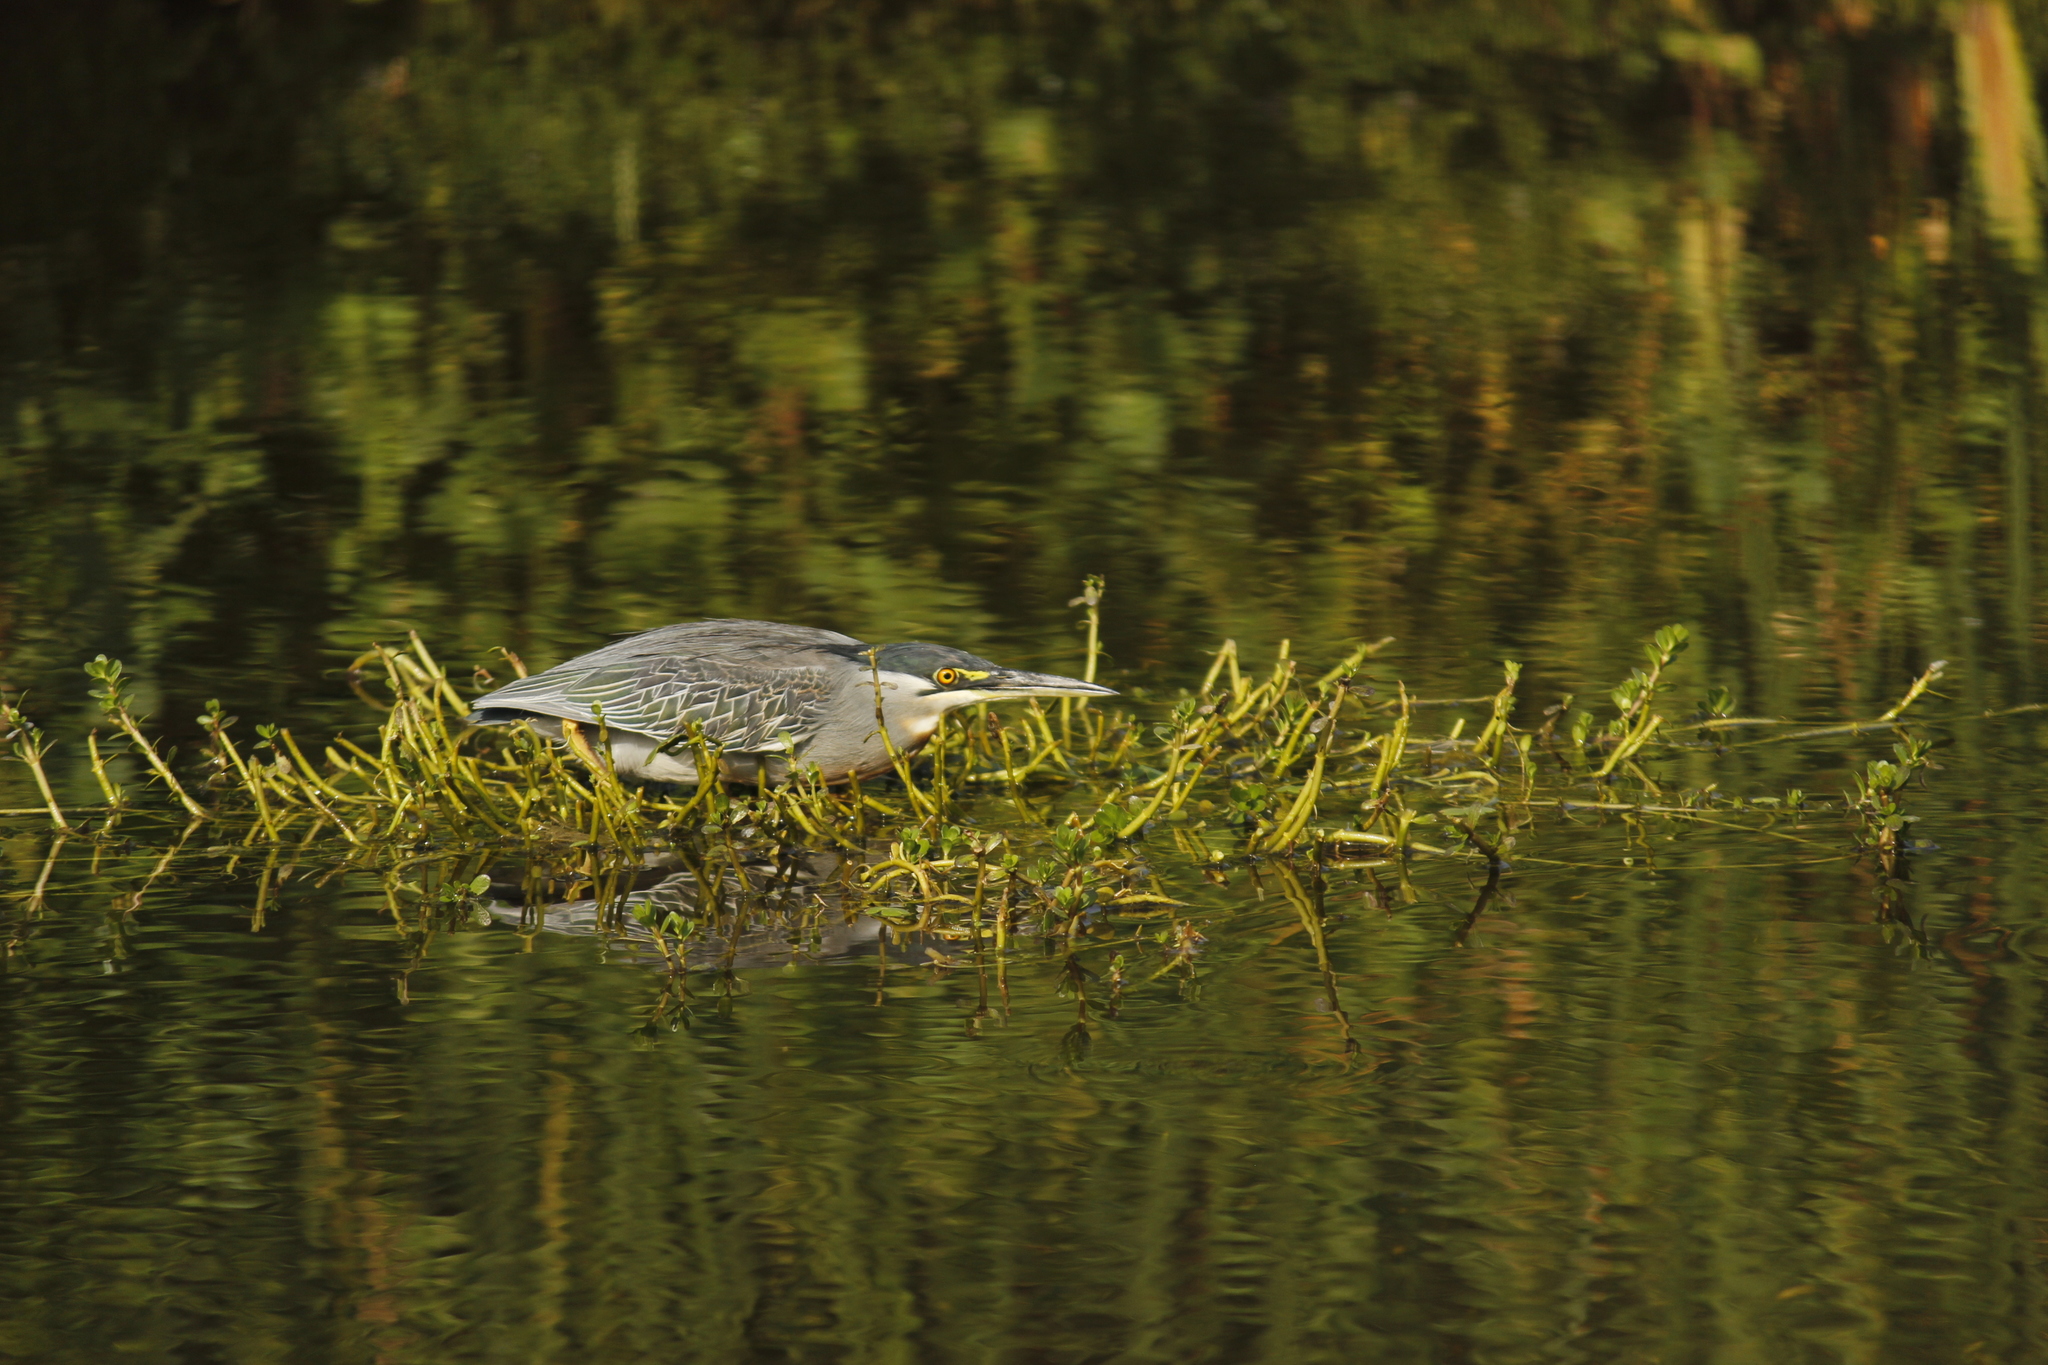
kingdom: Animalia
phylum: Chordata
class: Aves
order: Pelecaniformes
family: Ardeidae
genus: Butorides
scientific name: Butorides striata
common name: Striated heron
